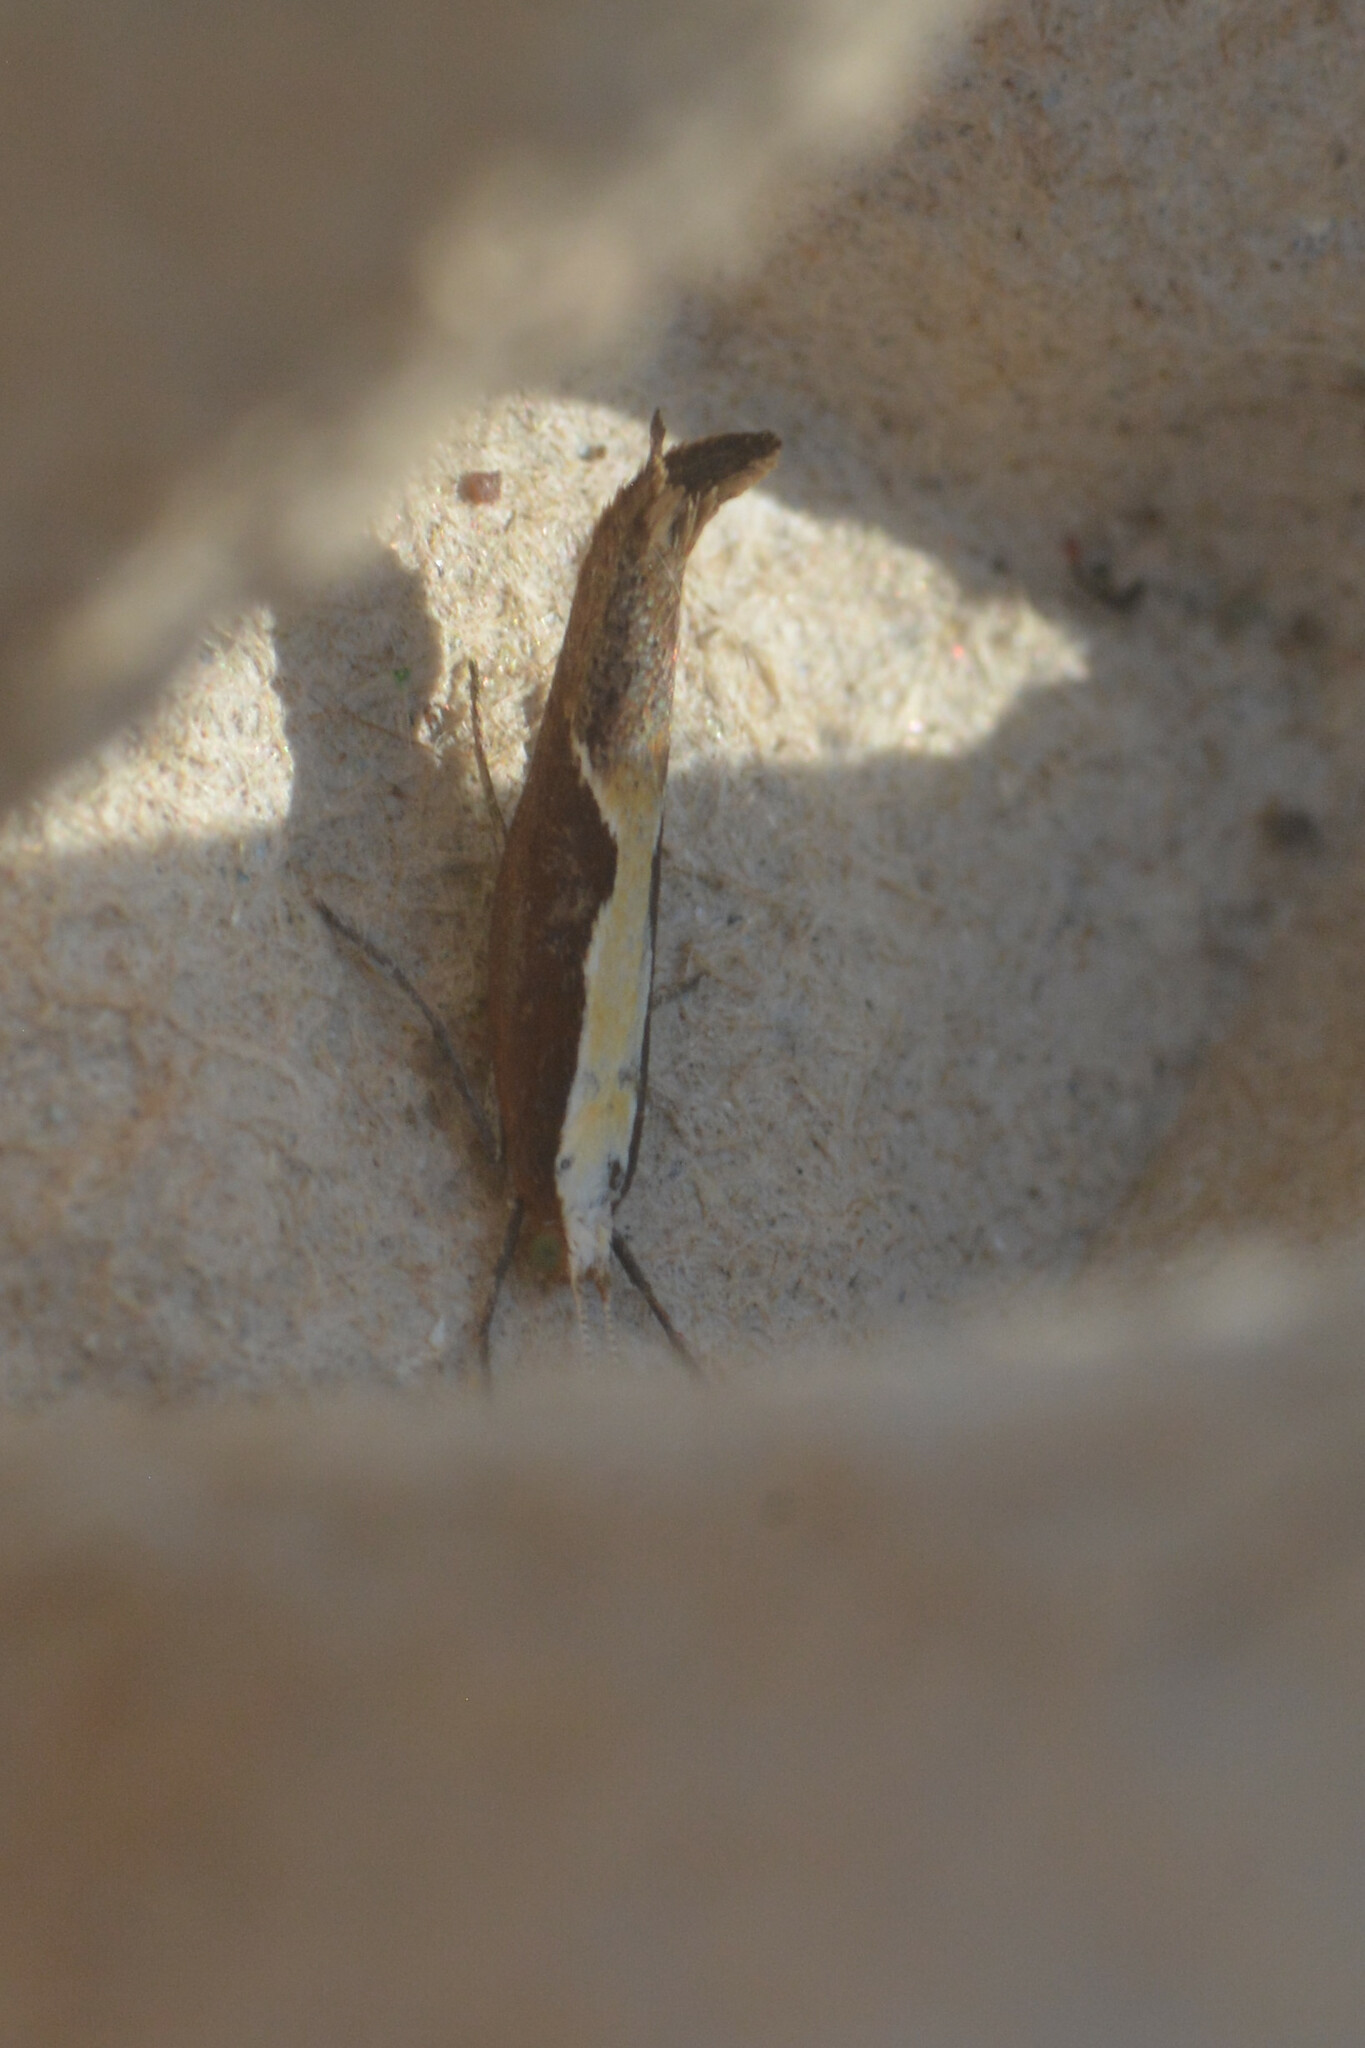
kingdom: Animalia
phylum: Arthropoda
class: Insecta
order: Lepidoptera
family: Ypsolophidae
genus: Ypsolopha
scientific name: Ypsolopha dentella
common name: Honeysuckle moth
